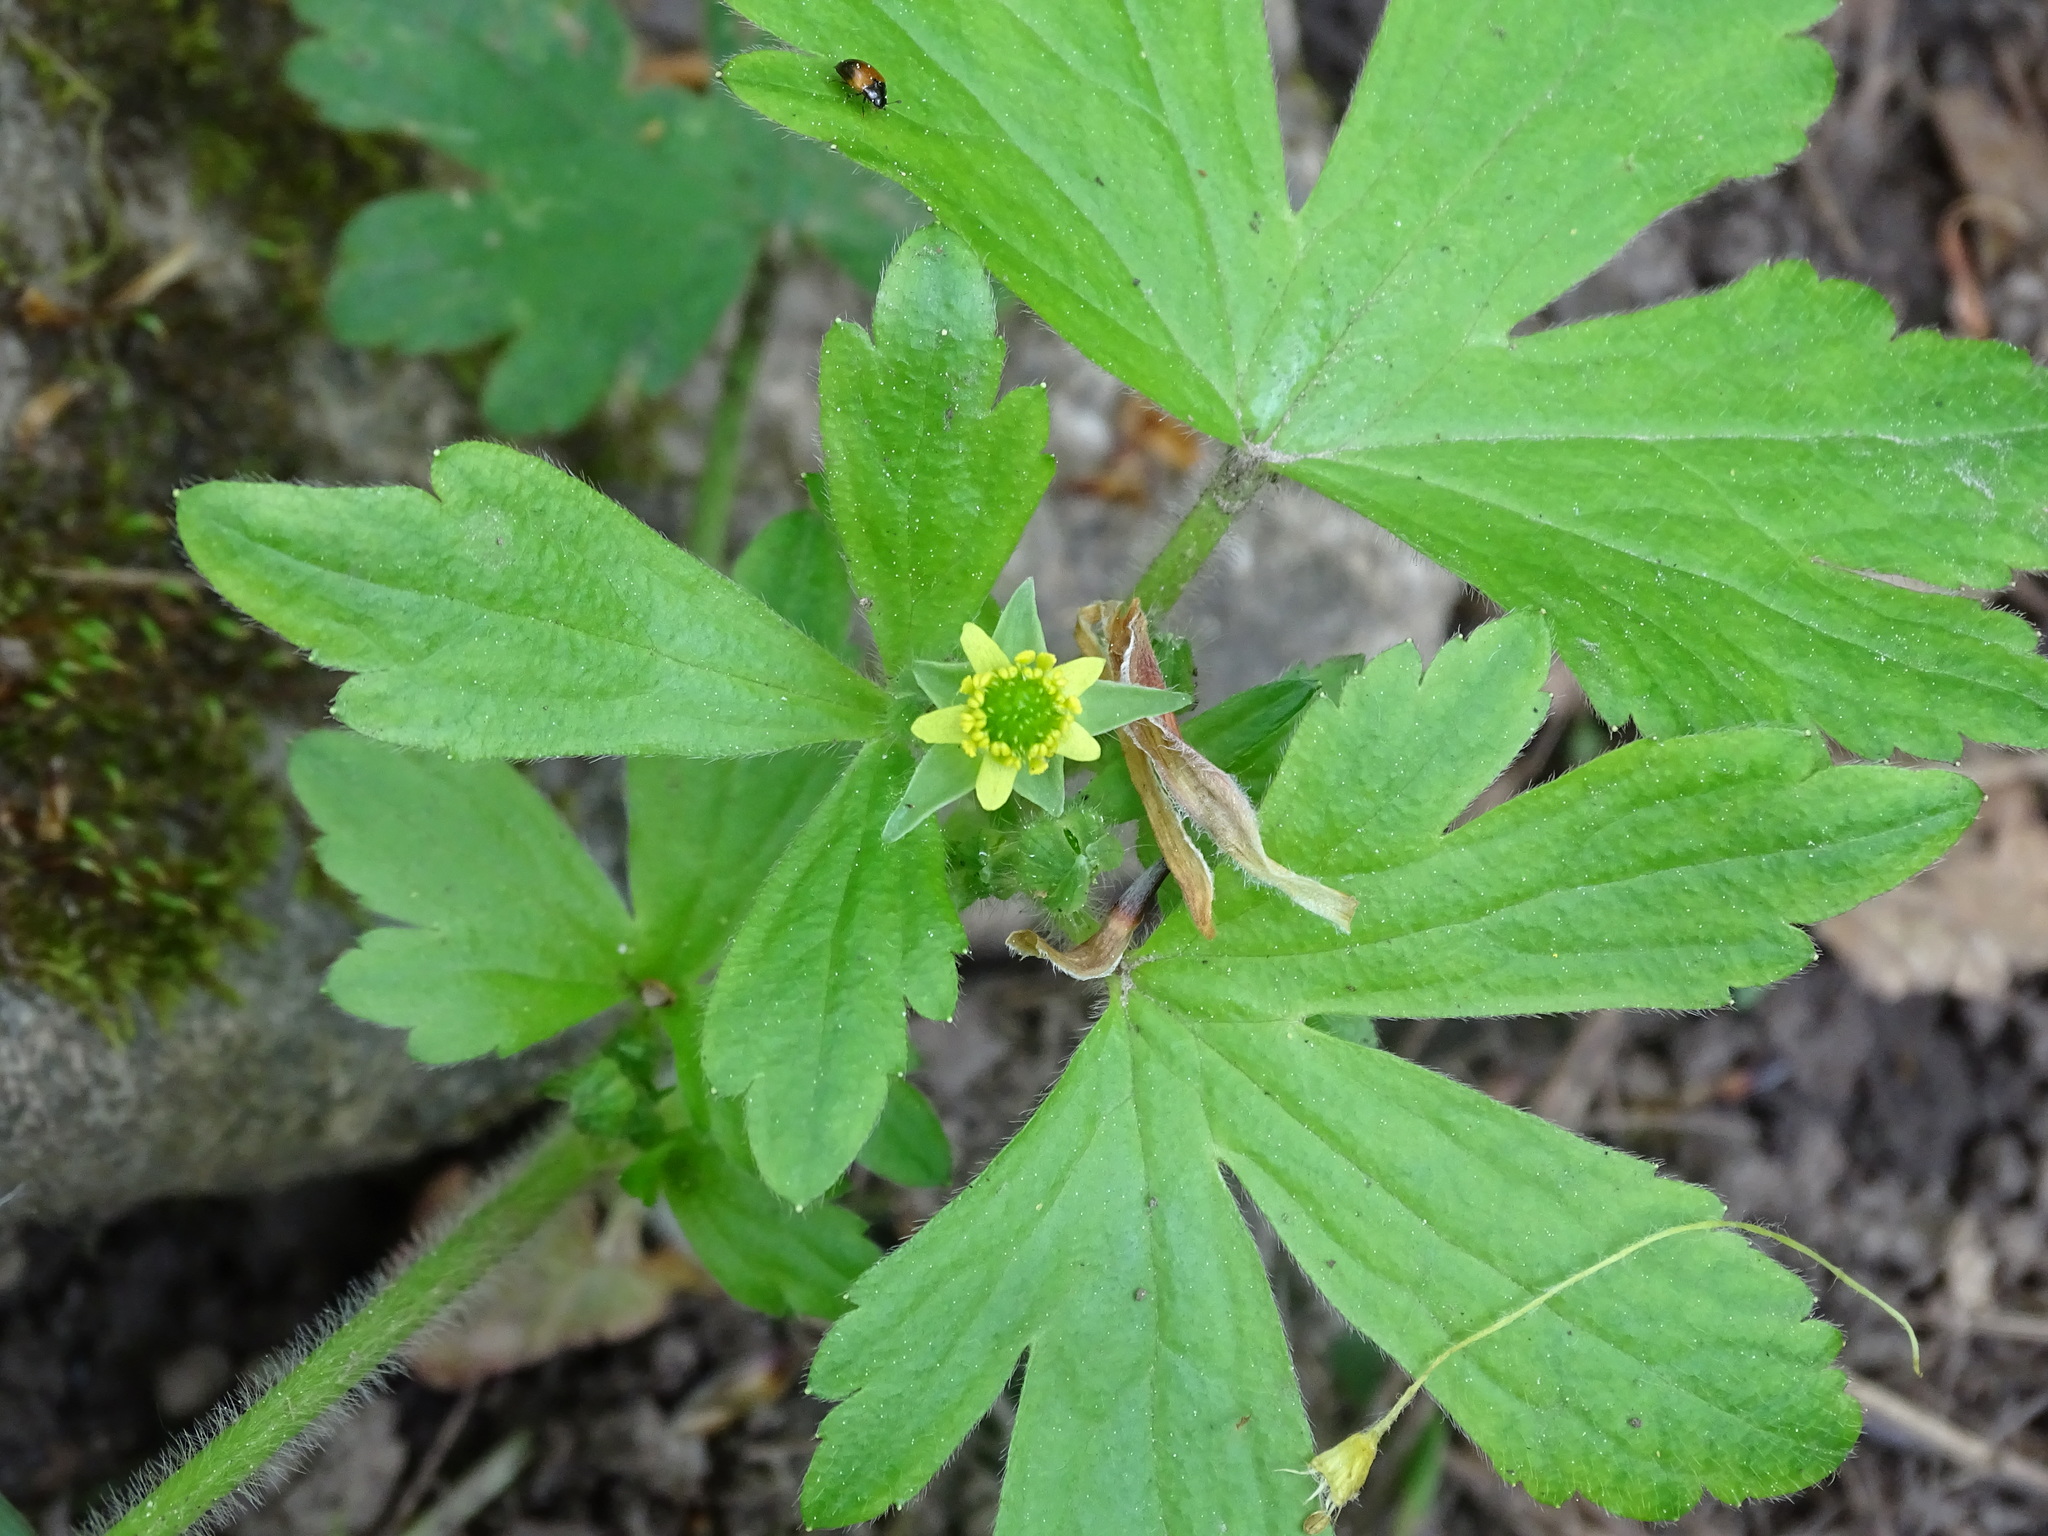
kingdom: Plantae
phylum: Tracheophyta
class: Magnoliopsida
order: Ranunculales
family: Ranunculaceae
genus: Ranunculus
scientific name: Ranunculus recurvatus
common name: Blisterwort
